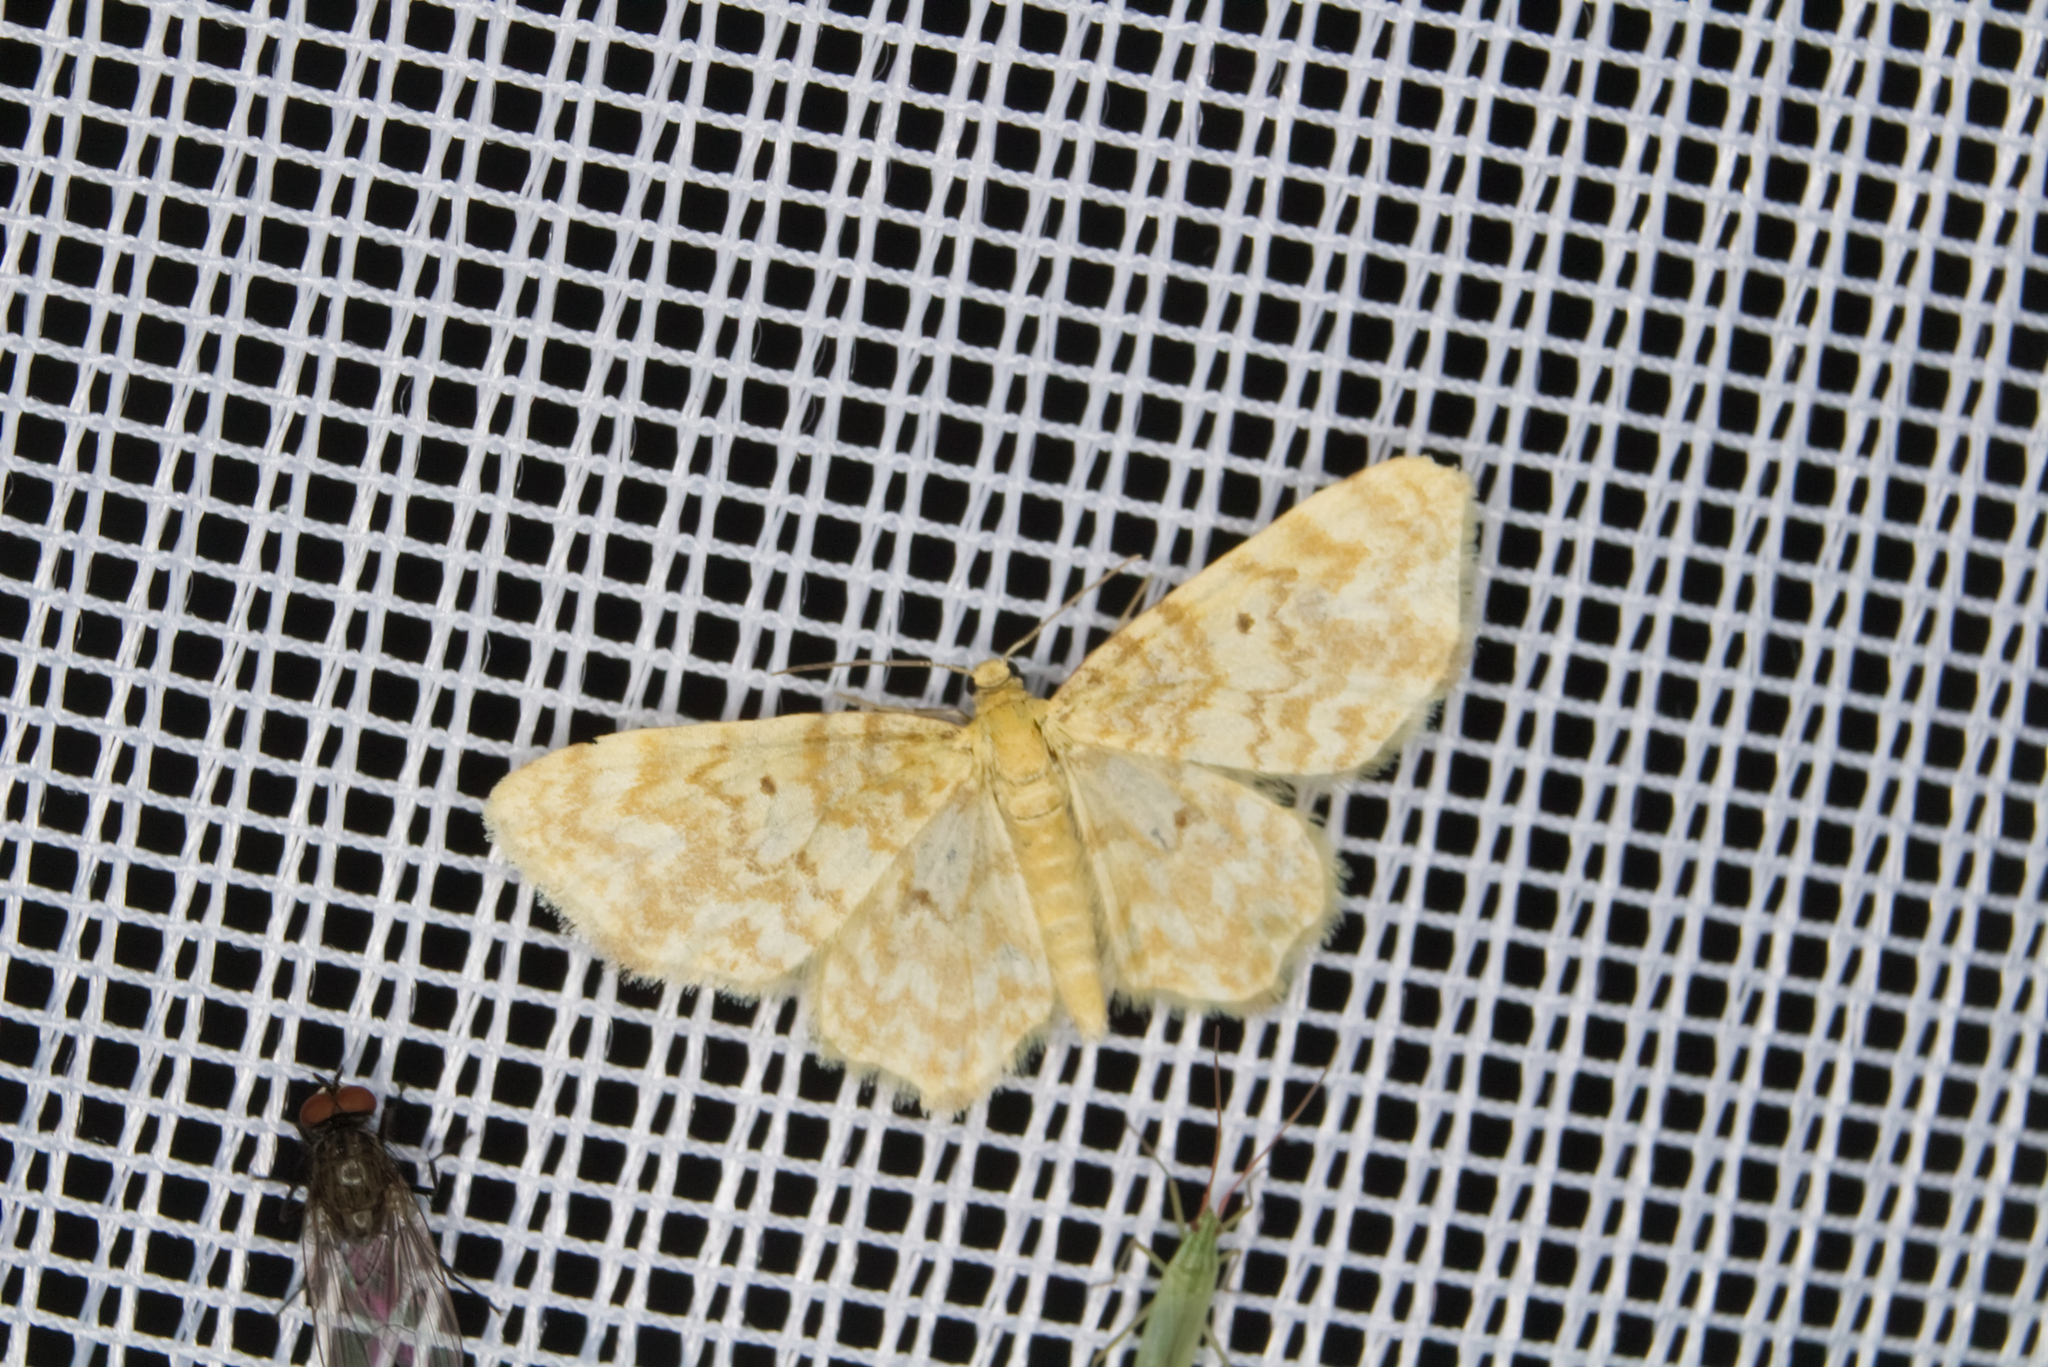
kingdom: Animalia
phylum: Arthropoda
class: Insecta
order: Lepidoptera
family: Geometridae
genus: Hydrelia
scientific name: Hydrelia flammeolaria
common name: Small yellow wave
